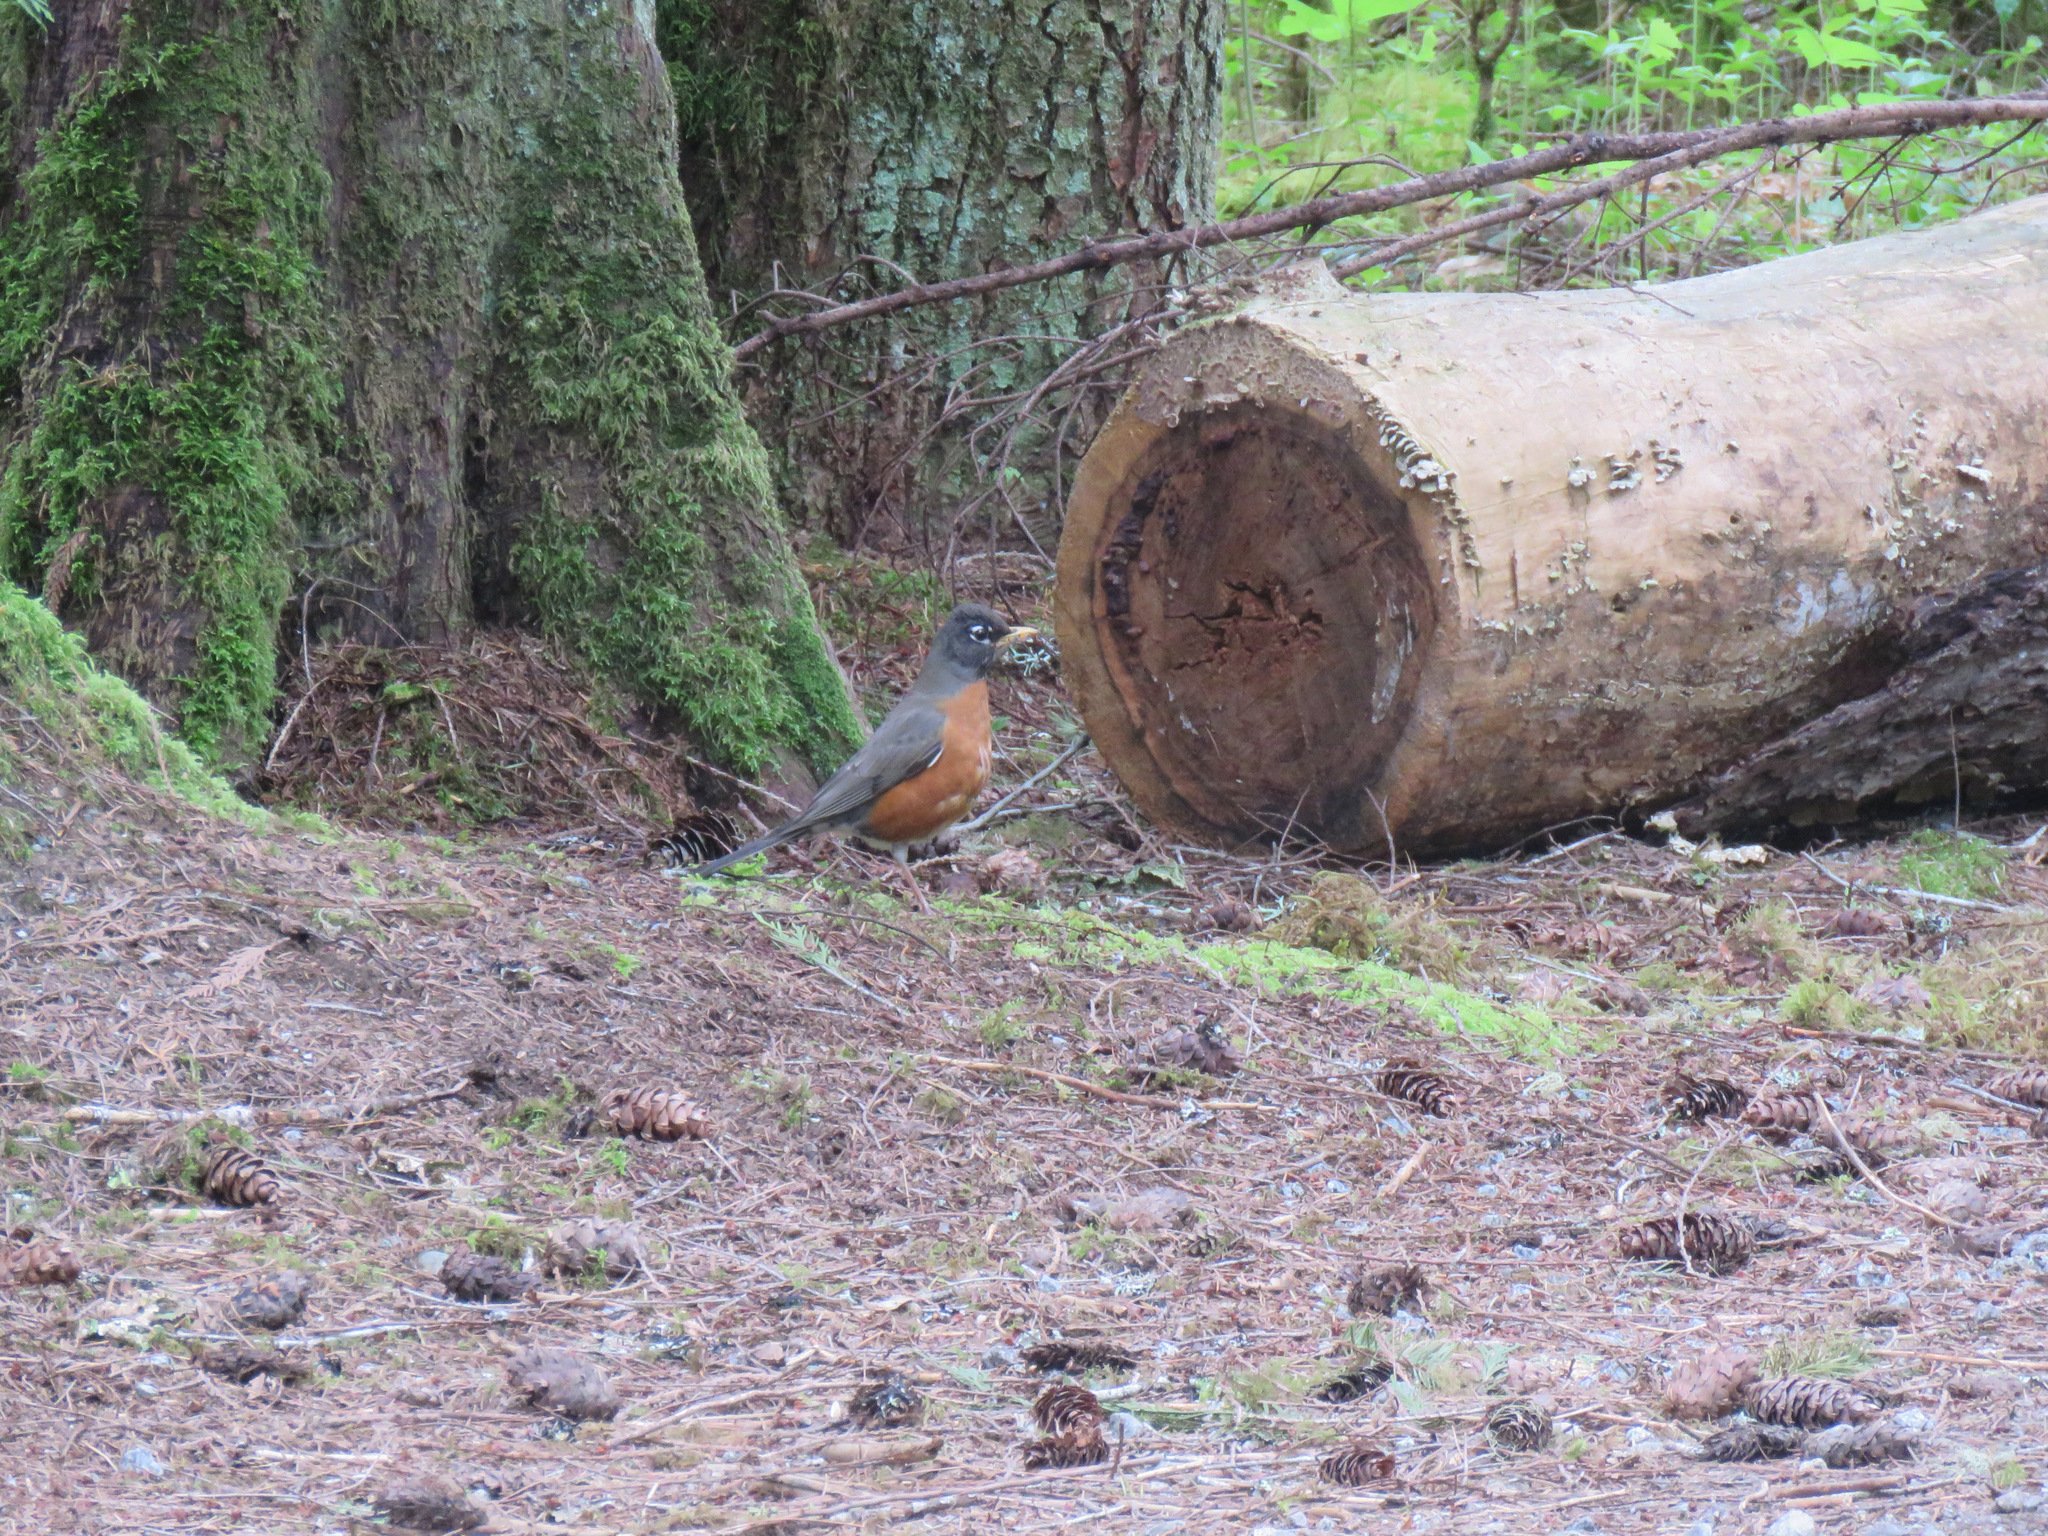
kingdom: Animalia
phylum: Chordata
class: Aves
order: Passeriformes
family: Turdidae
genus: Turdus
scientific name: Turdus migratorius
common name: American robin
